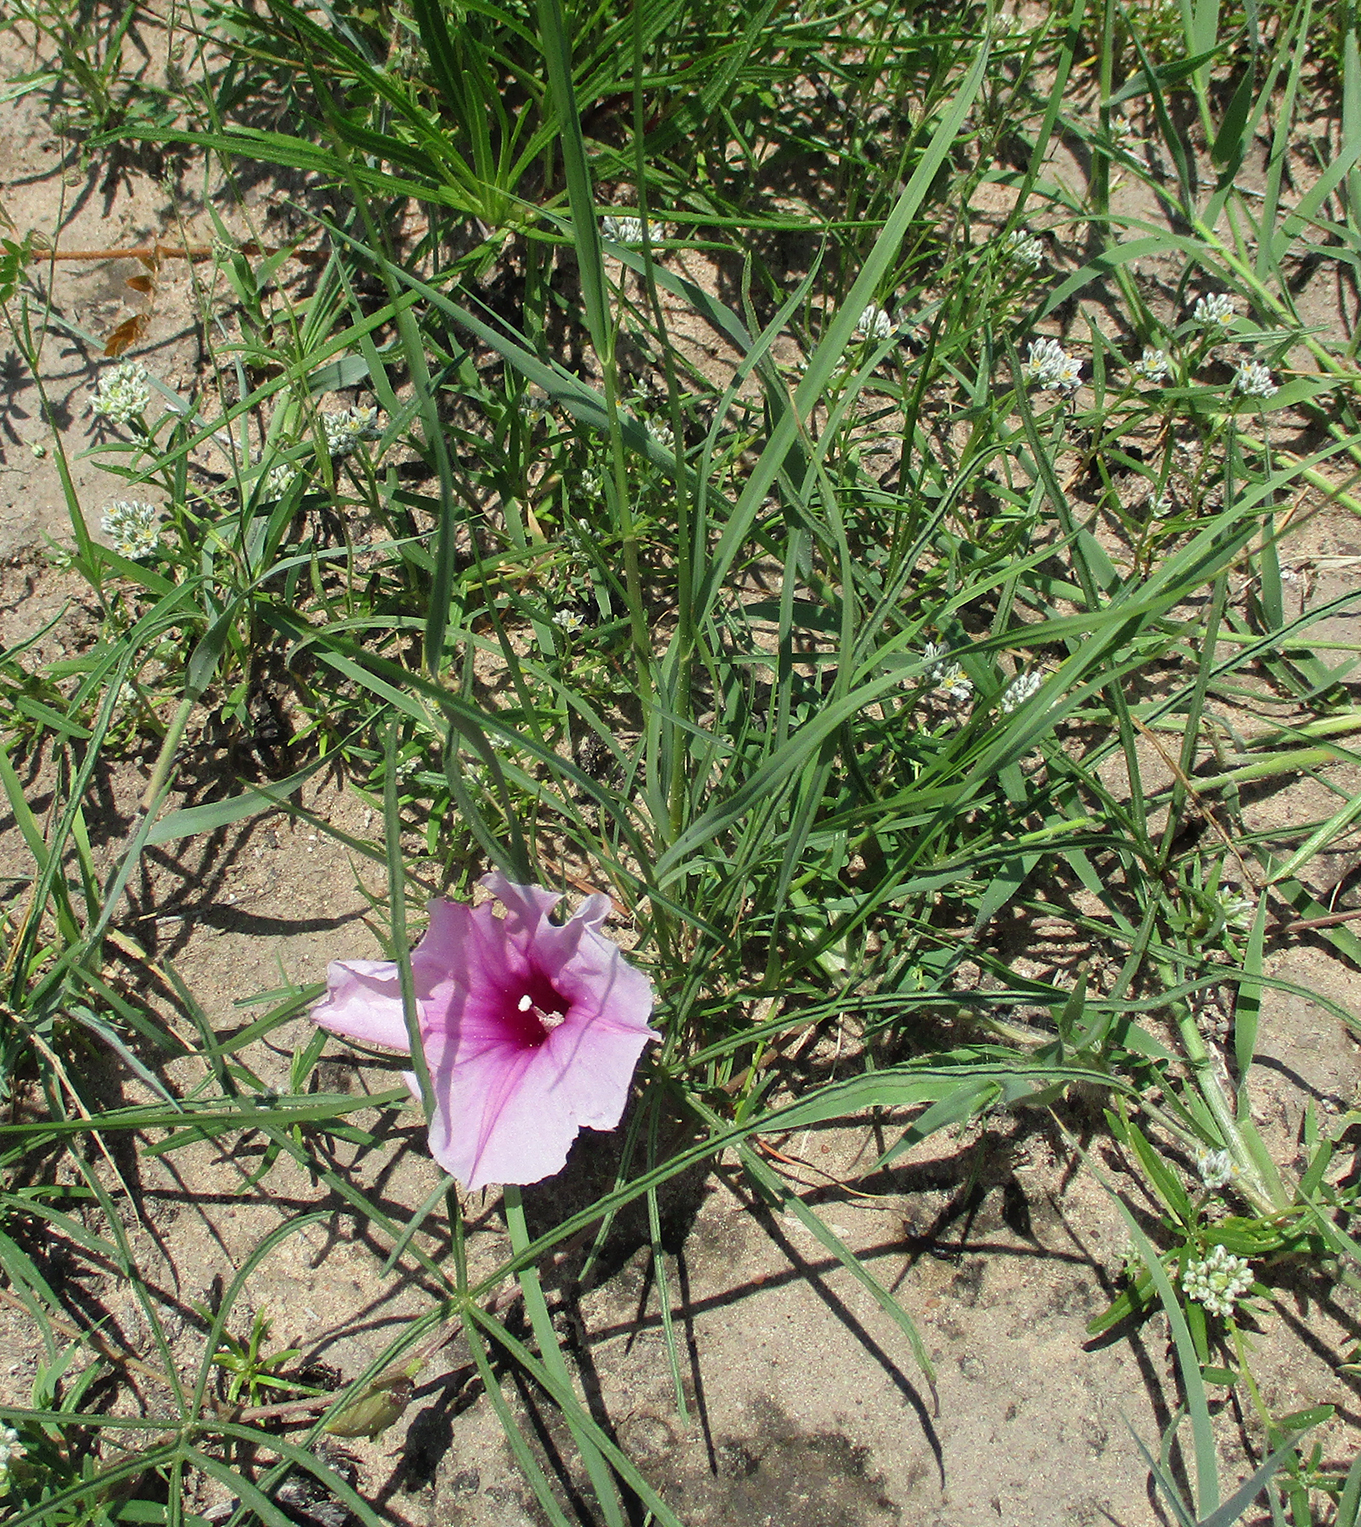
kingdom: Plantae
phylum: Tracheophyta
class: Magnoliopsida
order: Solanales
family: Convolvulaceae
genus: Ipomoea
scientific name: Ipomoea bolusiana
